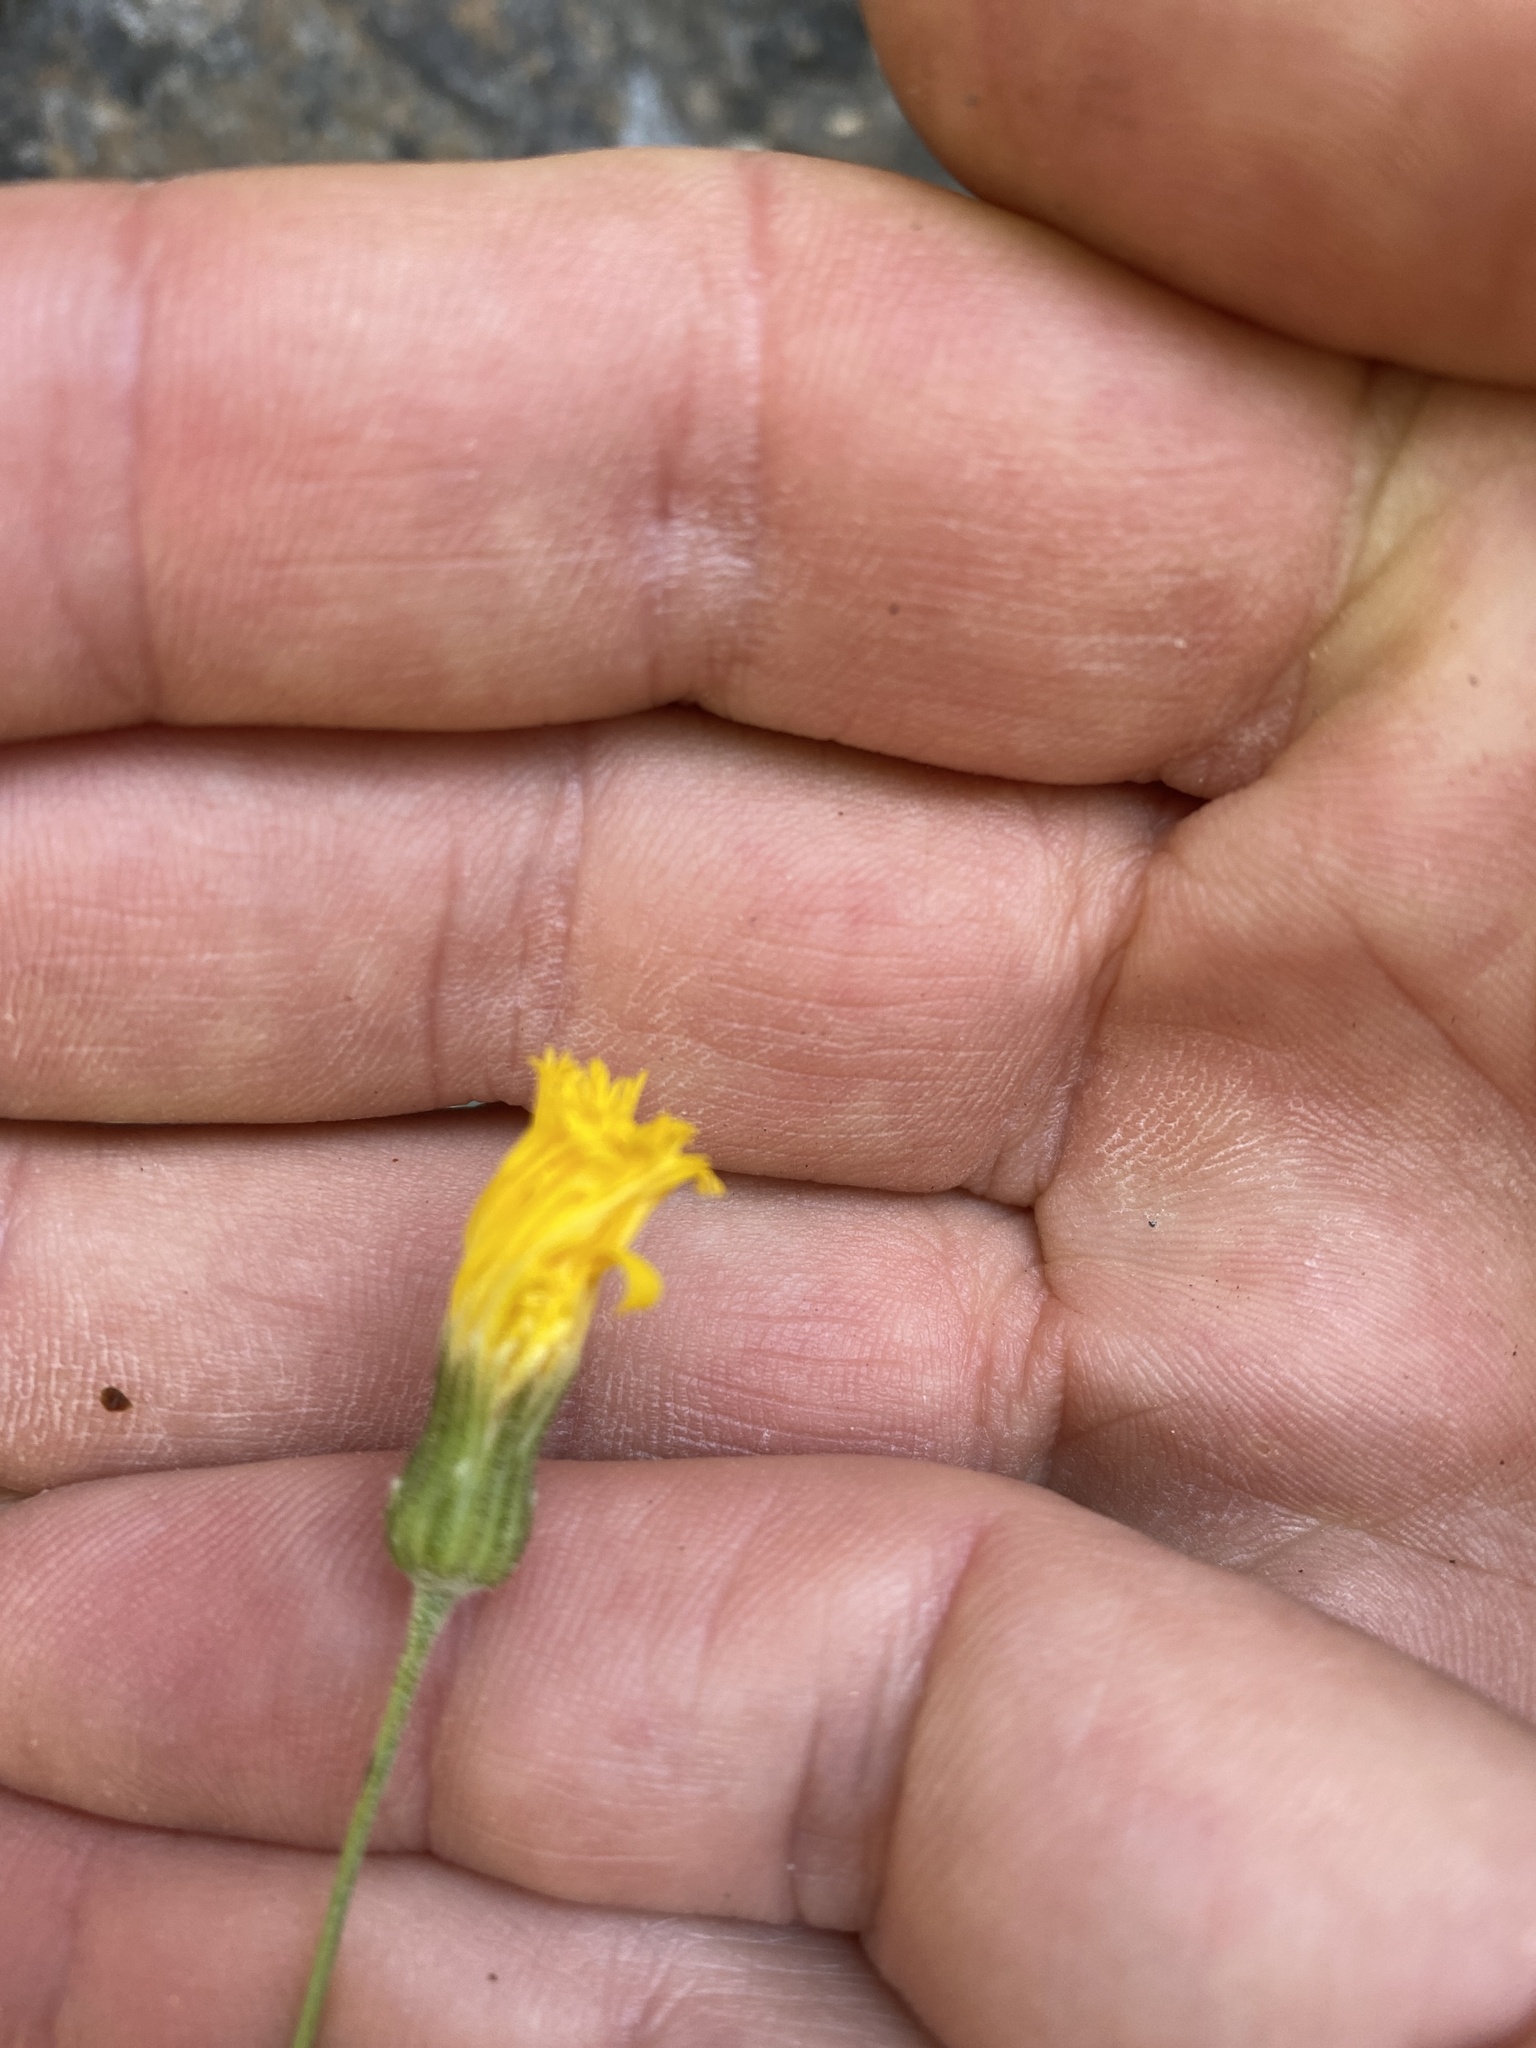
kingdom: Plantae
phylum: Tracheophyta
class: Magnoliopsida
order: Asterales
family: Asteraceae
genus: Hieracium
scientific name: Hieracium phlomoides
